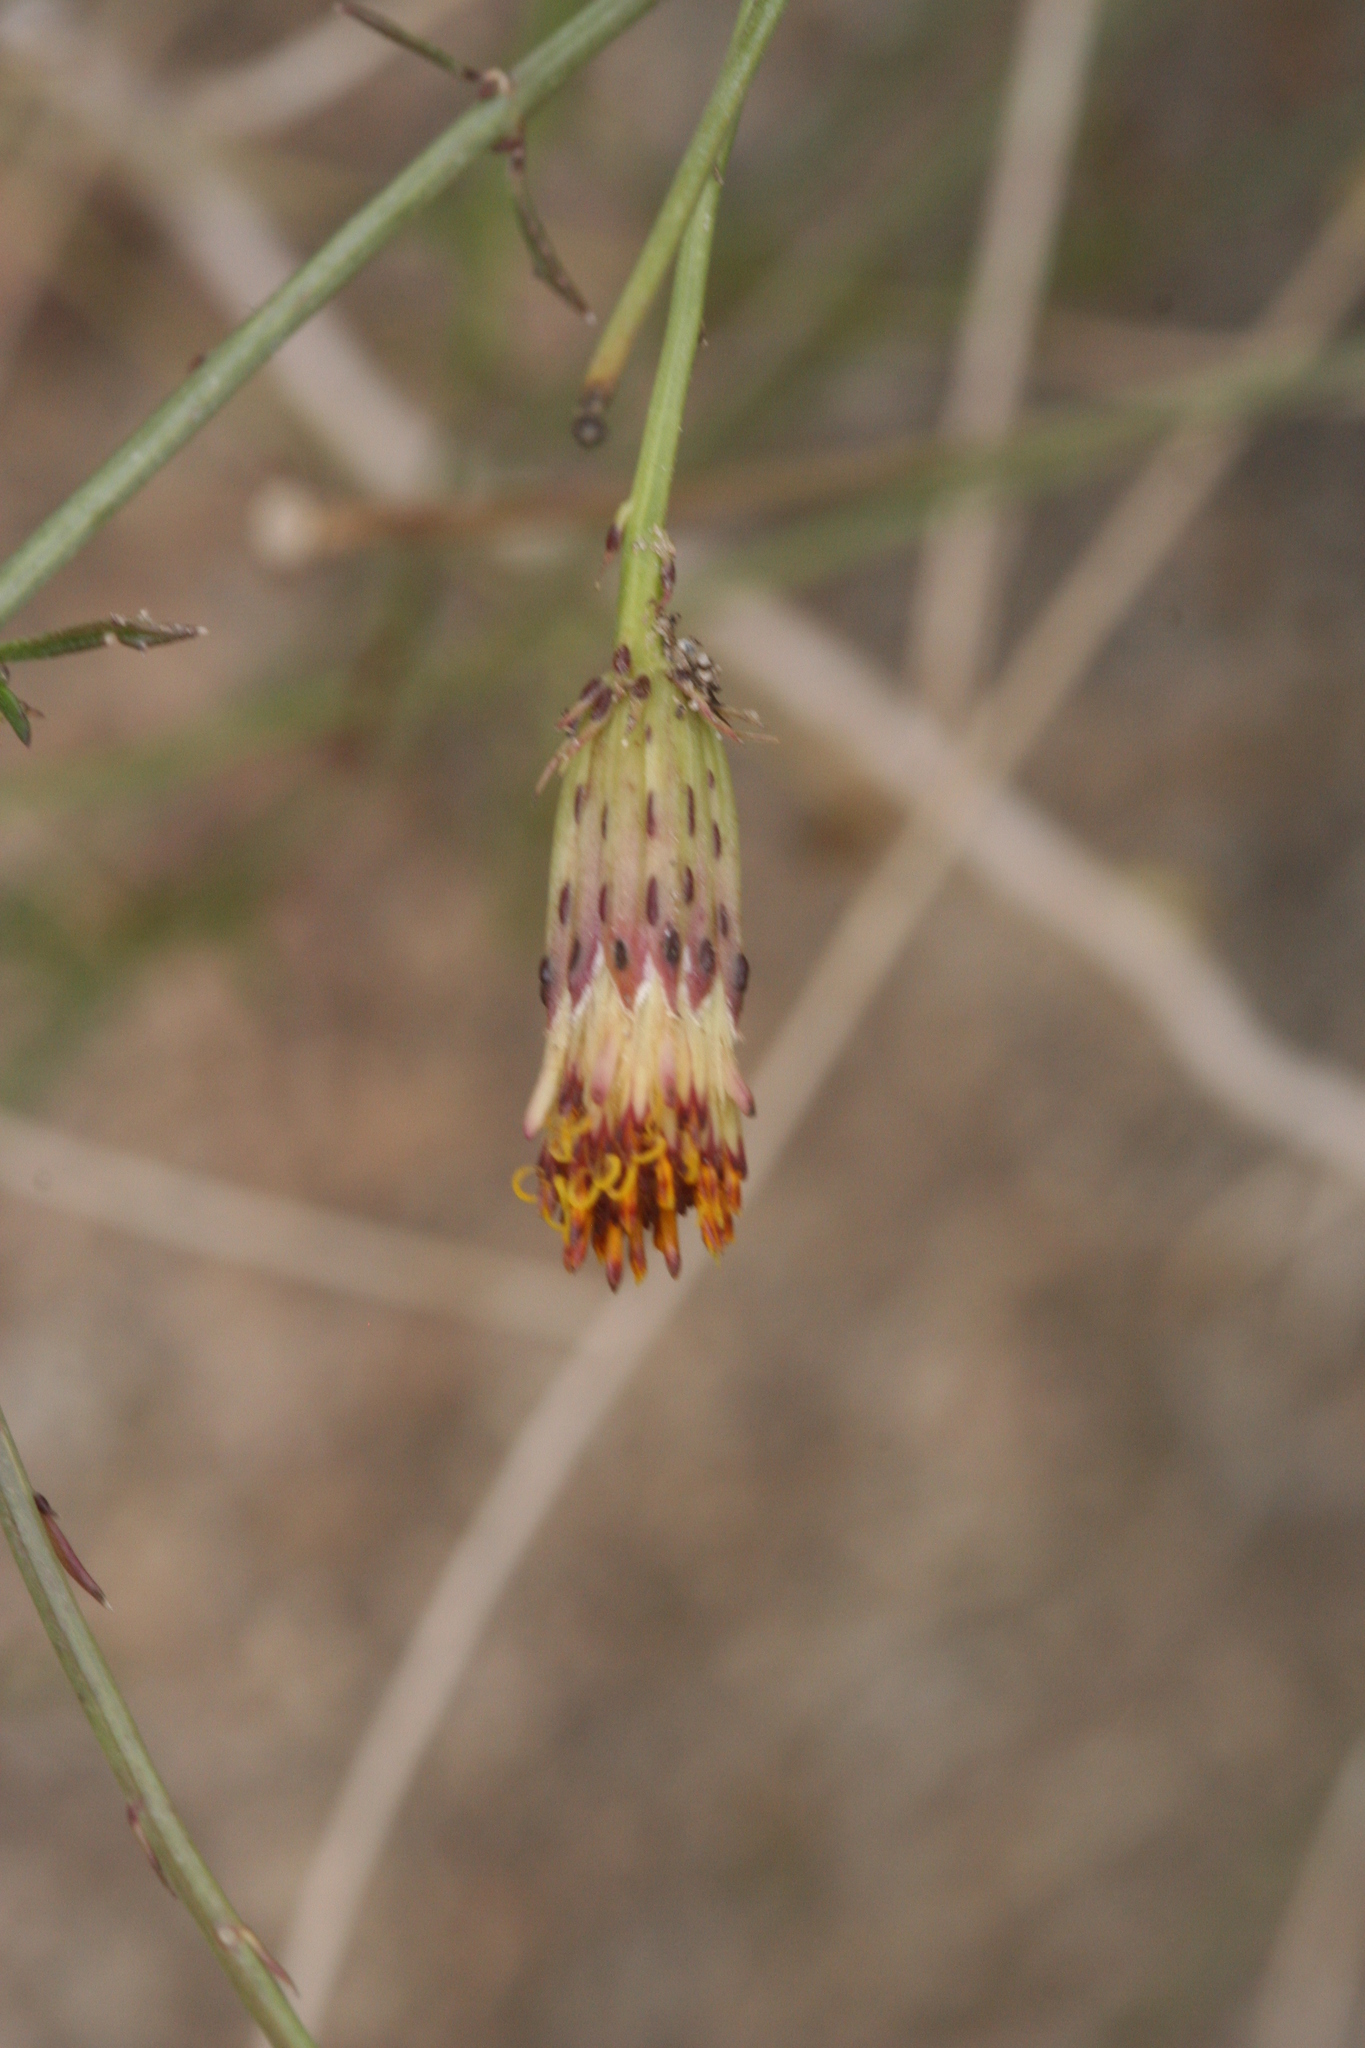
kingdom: Plantae
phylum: Tracheophyta
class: Magnoliopsida
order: Asterales
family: Asteraceae
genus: Adenophyllum
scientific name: Adenophyllum porophylloides
